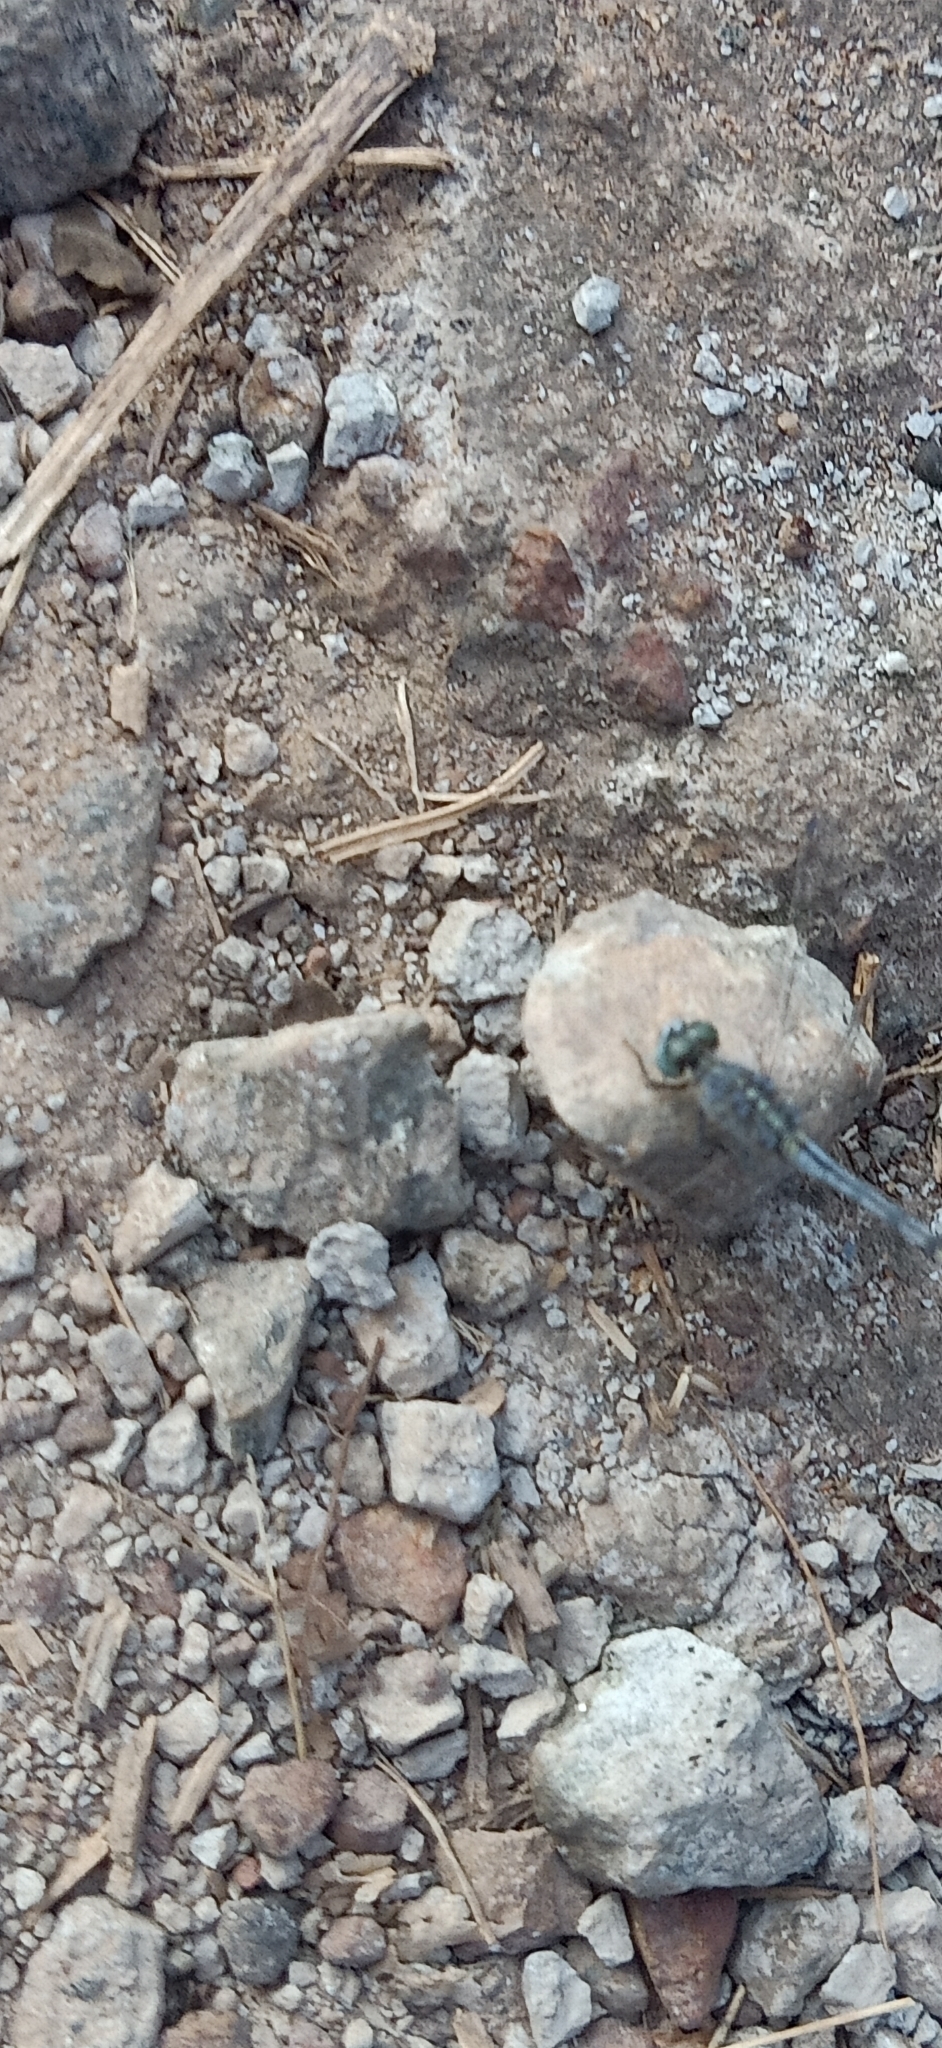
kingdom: Animalia
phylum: Arthropoda
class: Insecta
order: Odonata
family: Libellulidae
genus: Diplacodes
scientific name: Diplacodes trivialis
